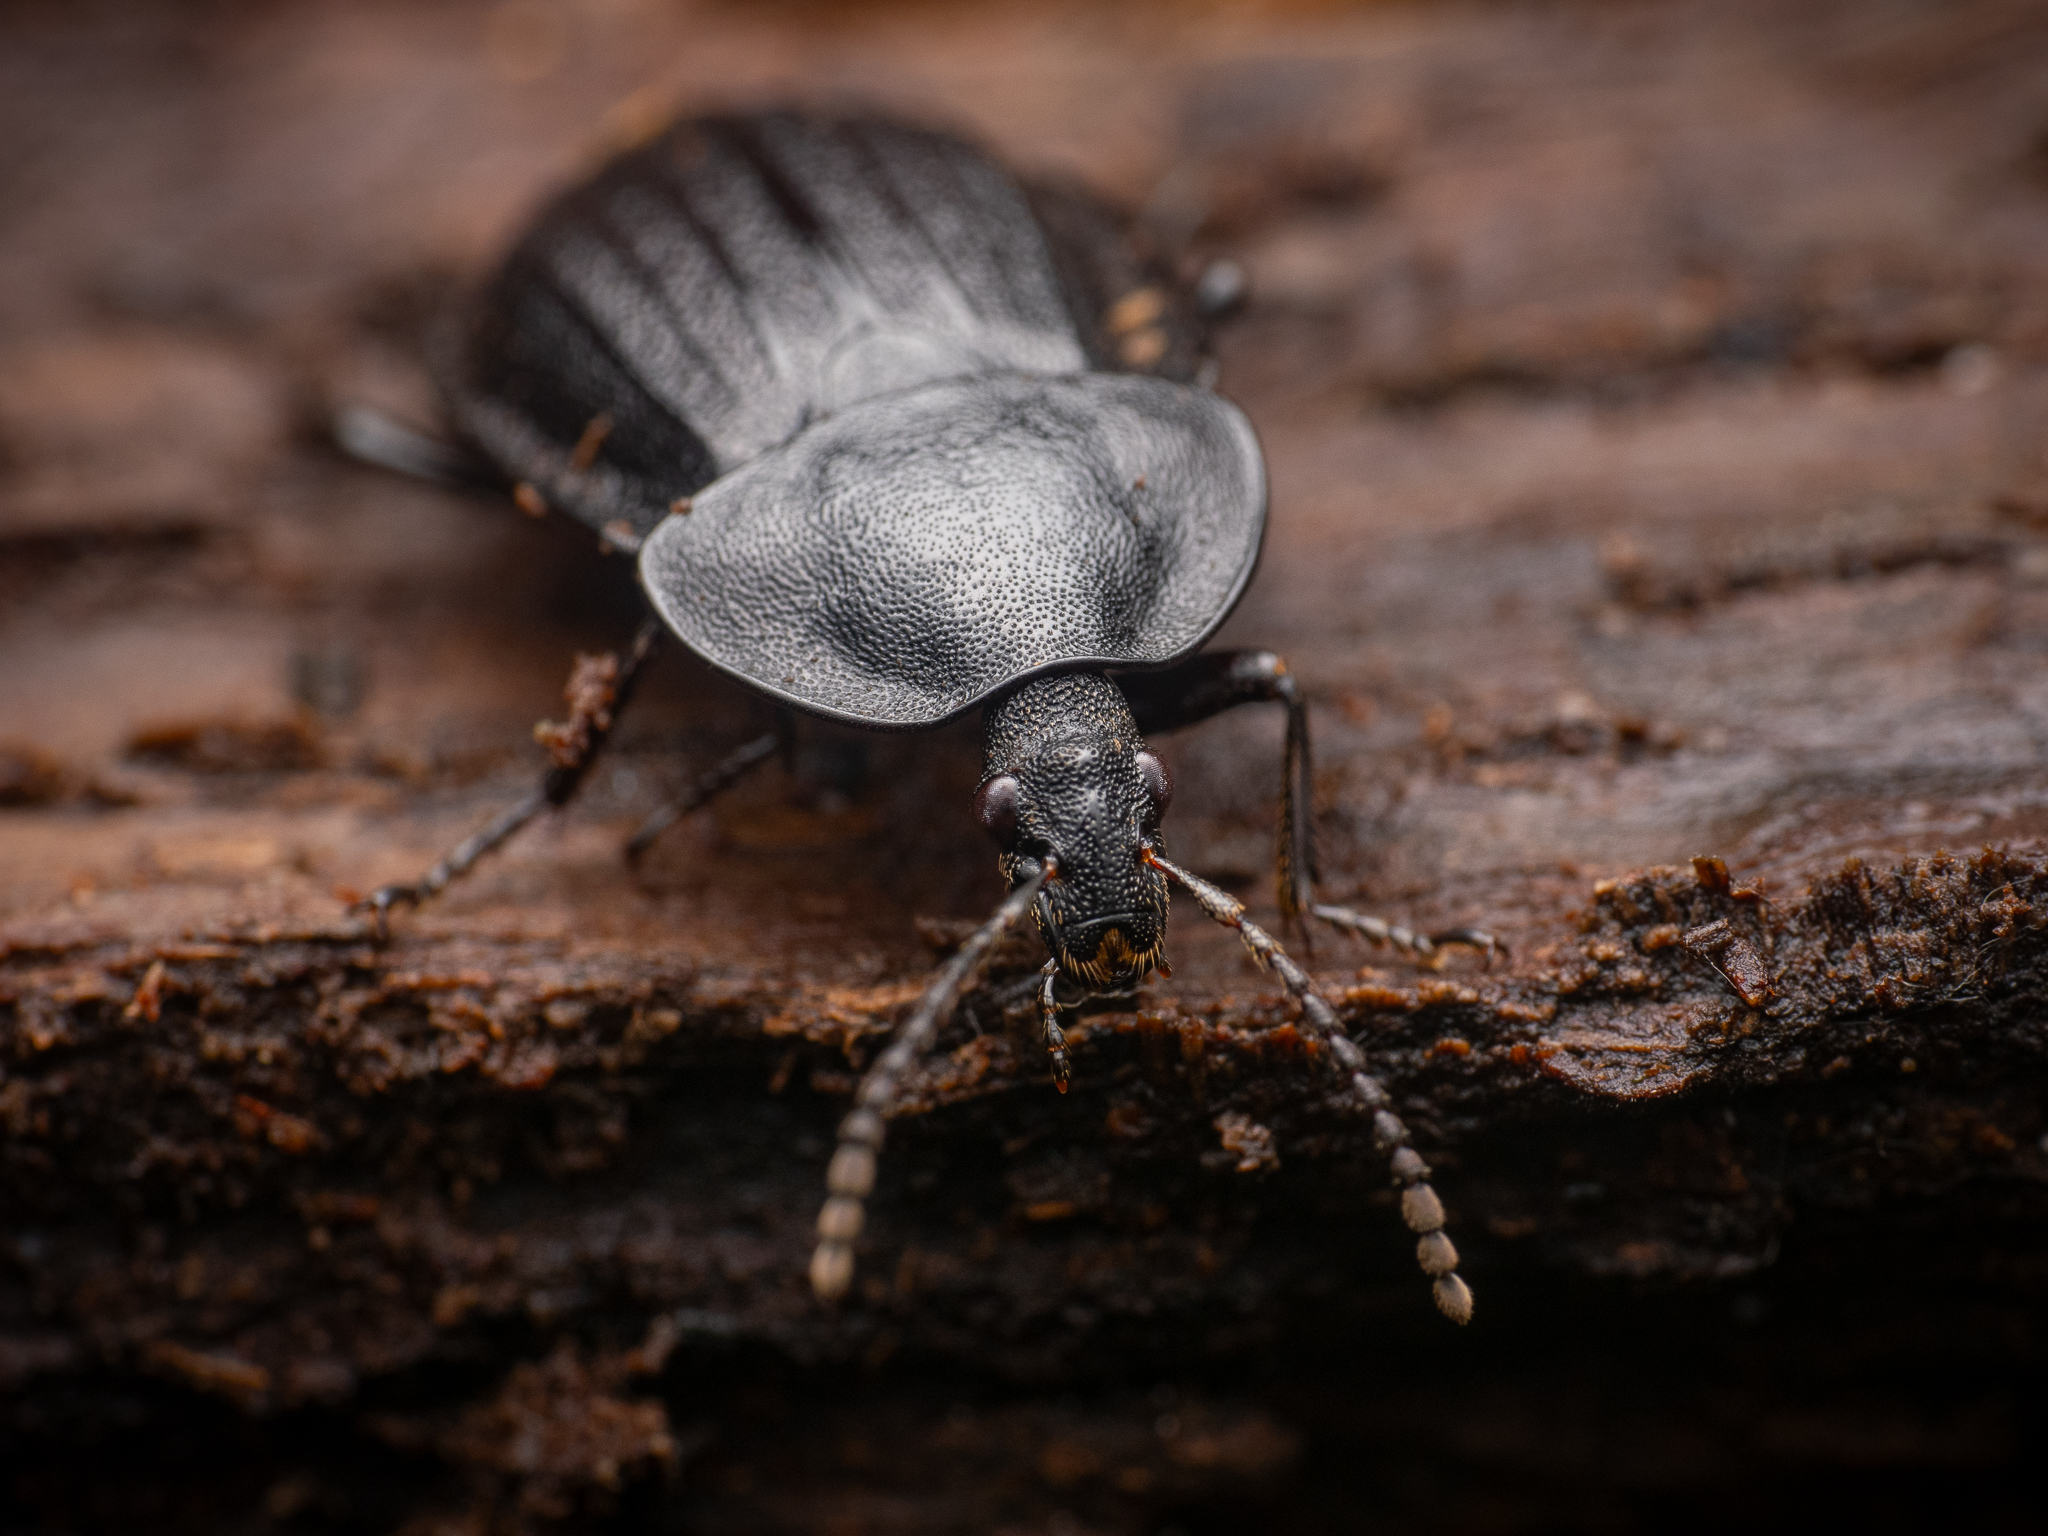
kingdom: Animalia
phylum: Arthropoda
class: Insecta
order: Coleoptera
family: Staphylinidae
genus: Silpha
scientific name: Silpha atrata
